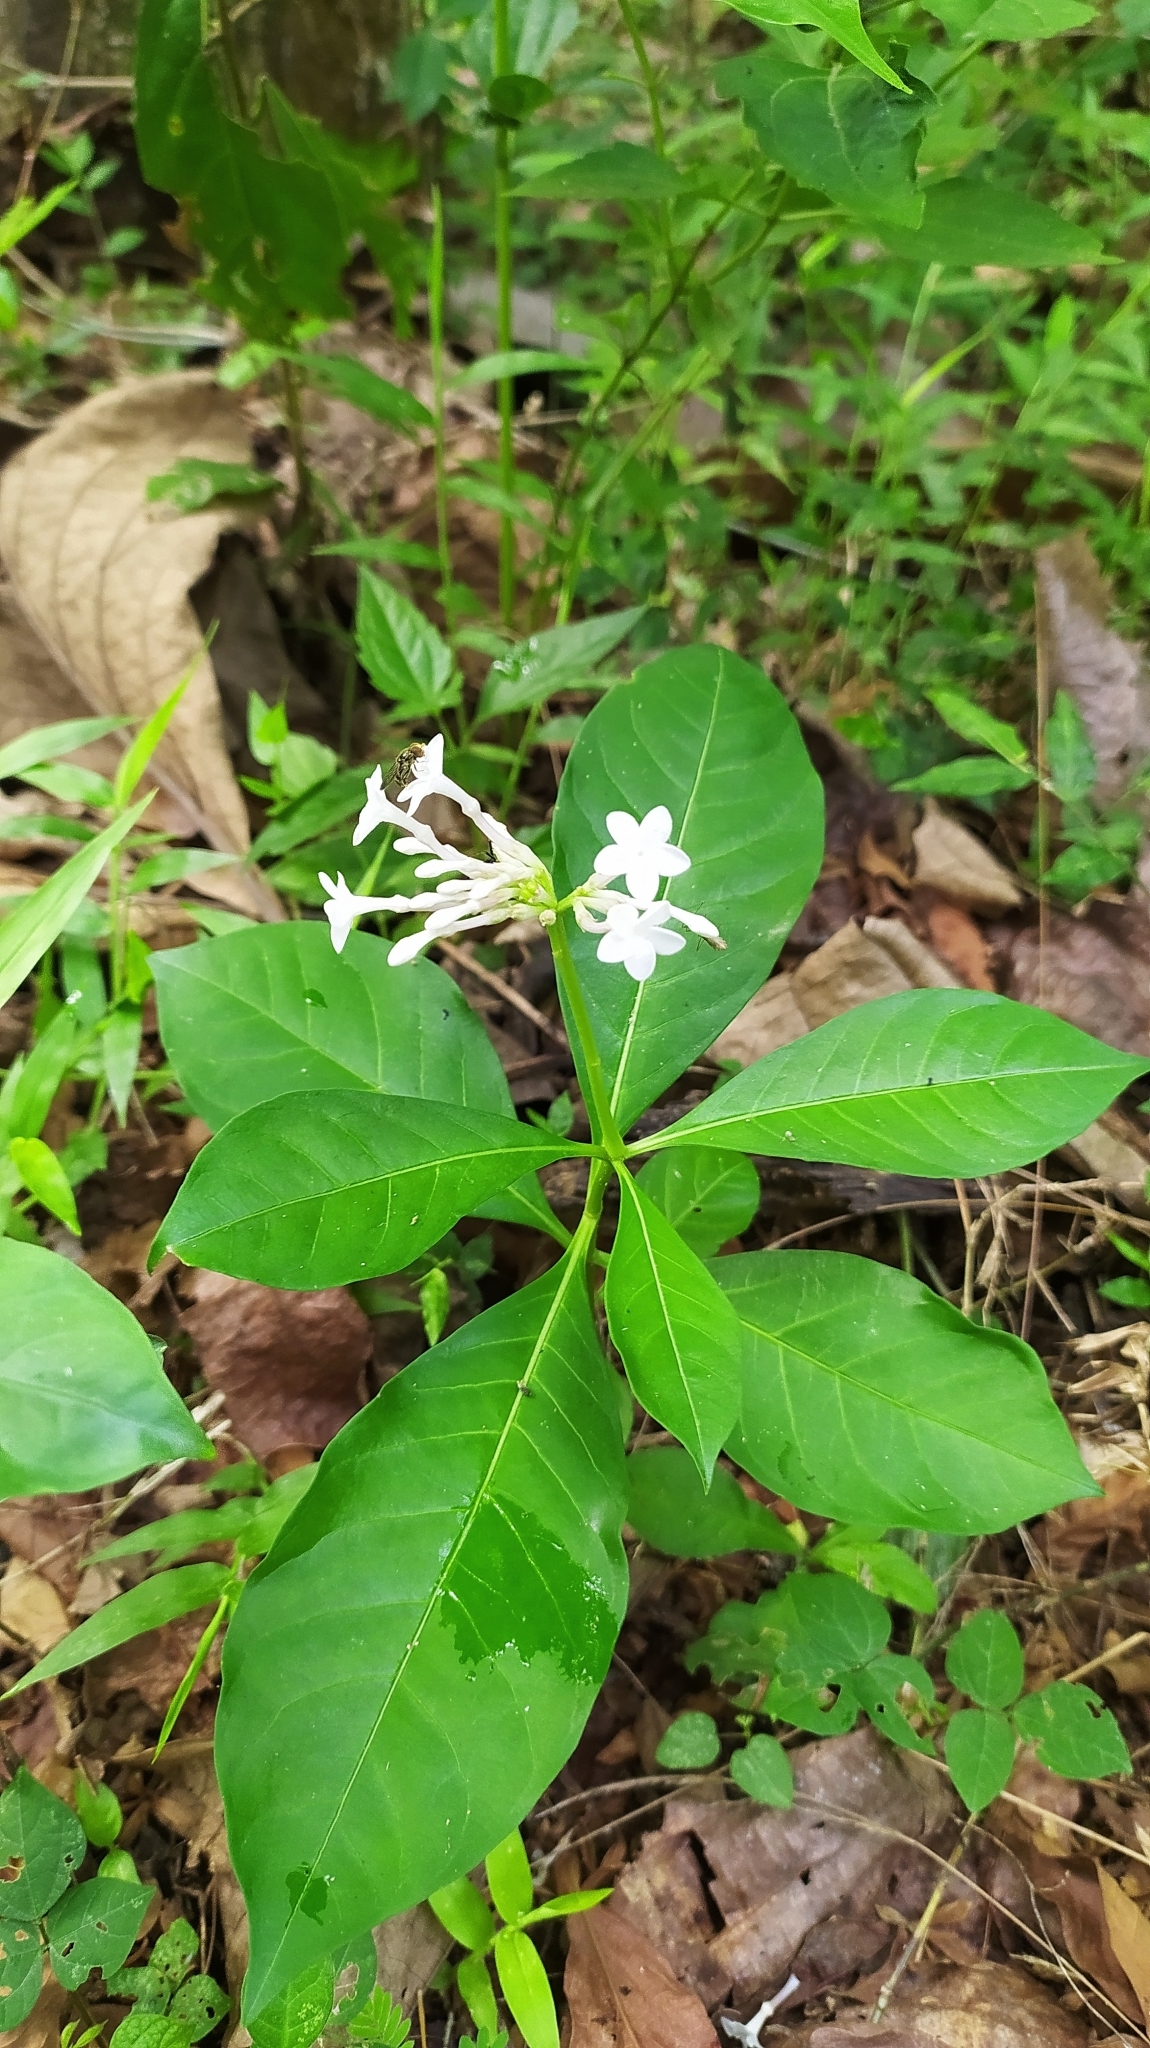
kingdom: Plantae
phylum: Tracheophyta
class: Magnoliopsida
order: Gentianales
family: Apocynaceae
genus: Rauvolfia
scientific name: Rauvolfia serpentina
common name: Ajmaline
